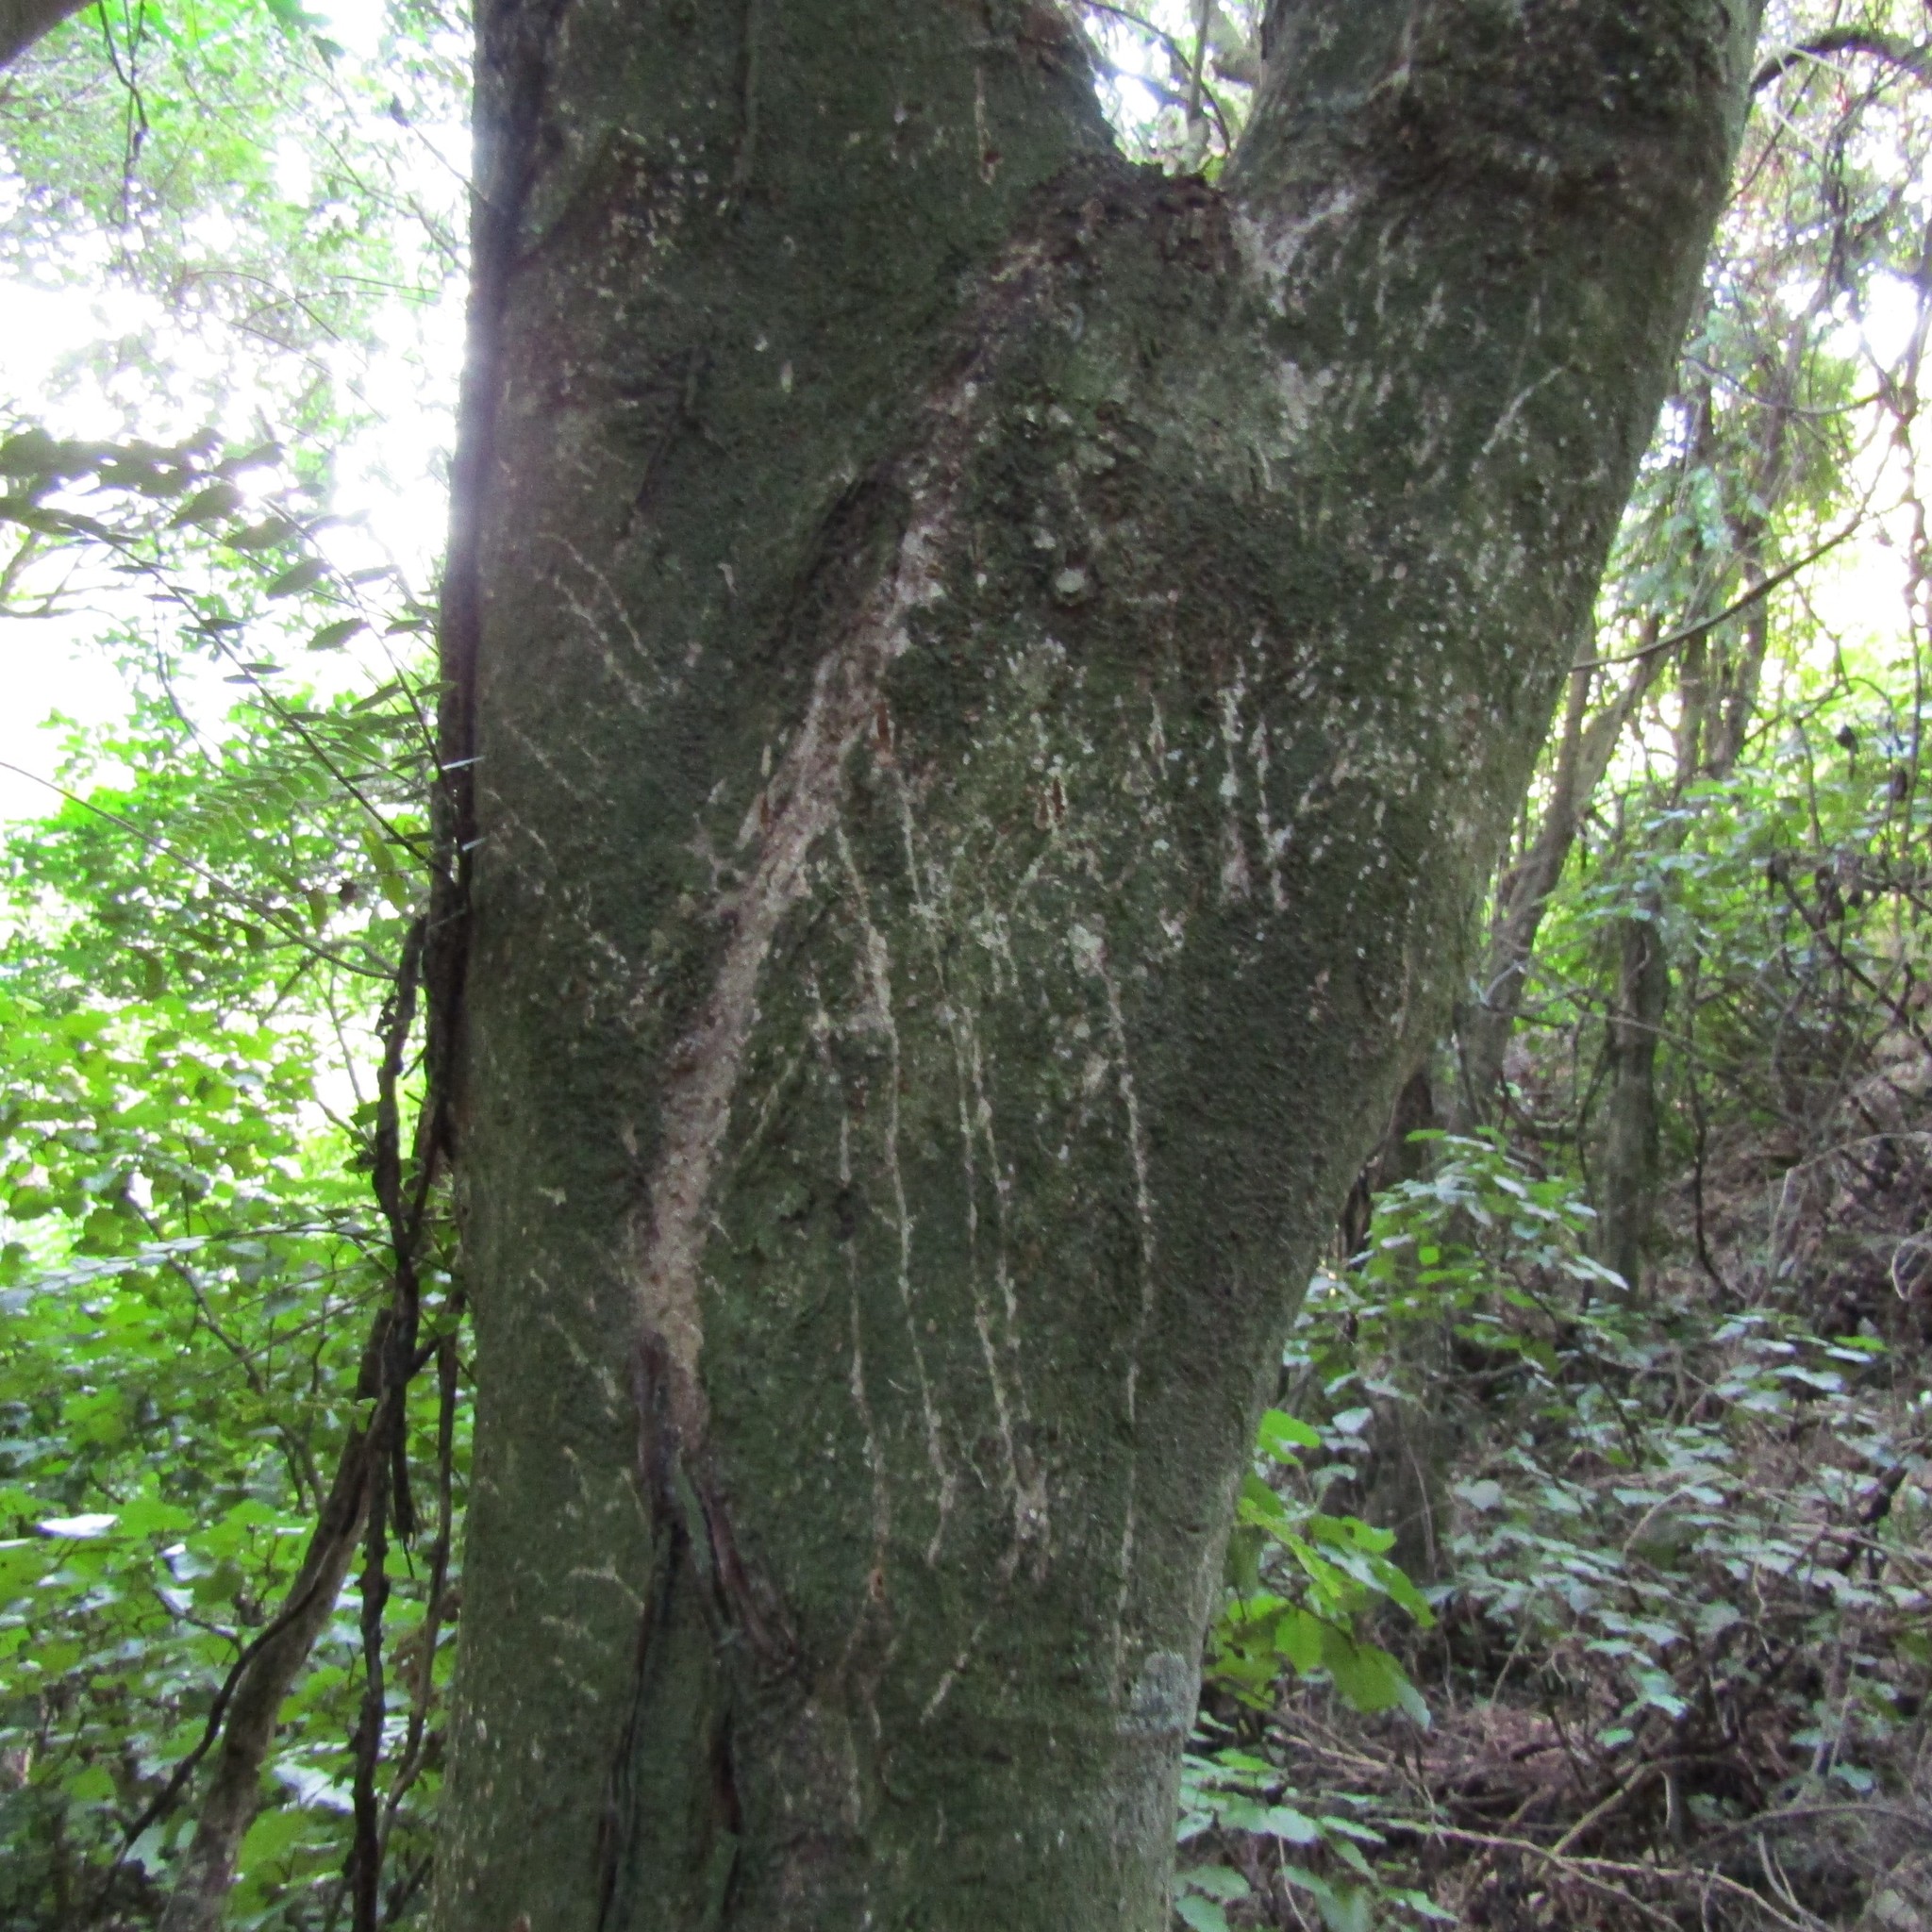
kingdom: Animalia
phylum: Chordata
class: Mammalia
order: Diprotodontia
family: Phalangeridae
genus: Trichosurus
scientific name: Trichosurus vulpecula
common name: Common brushtail
